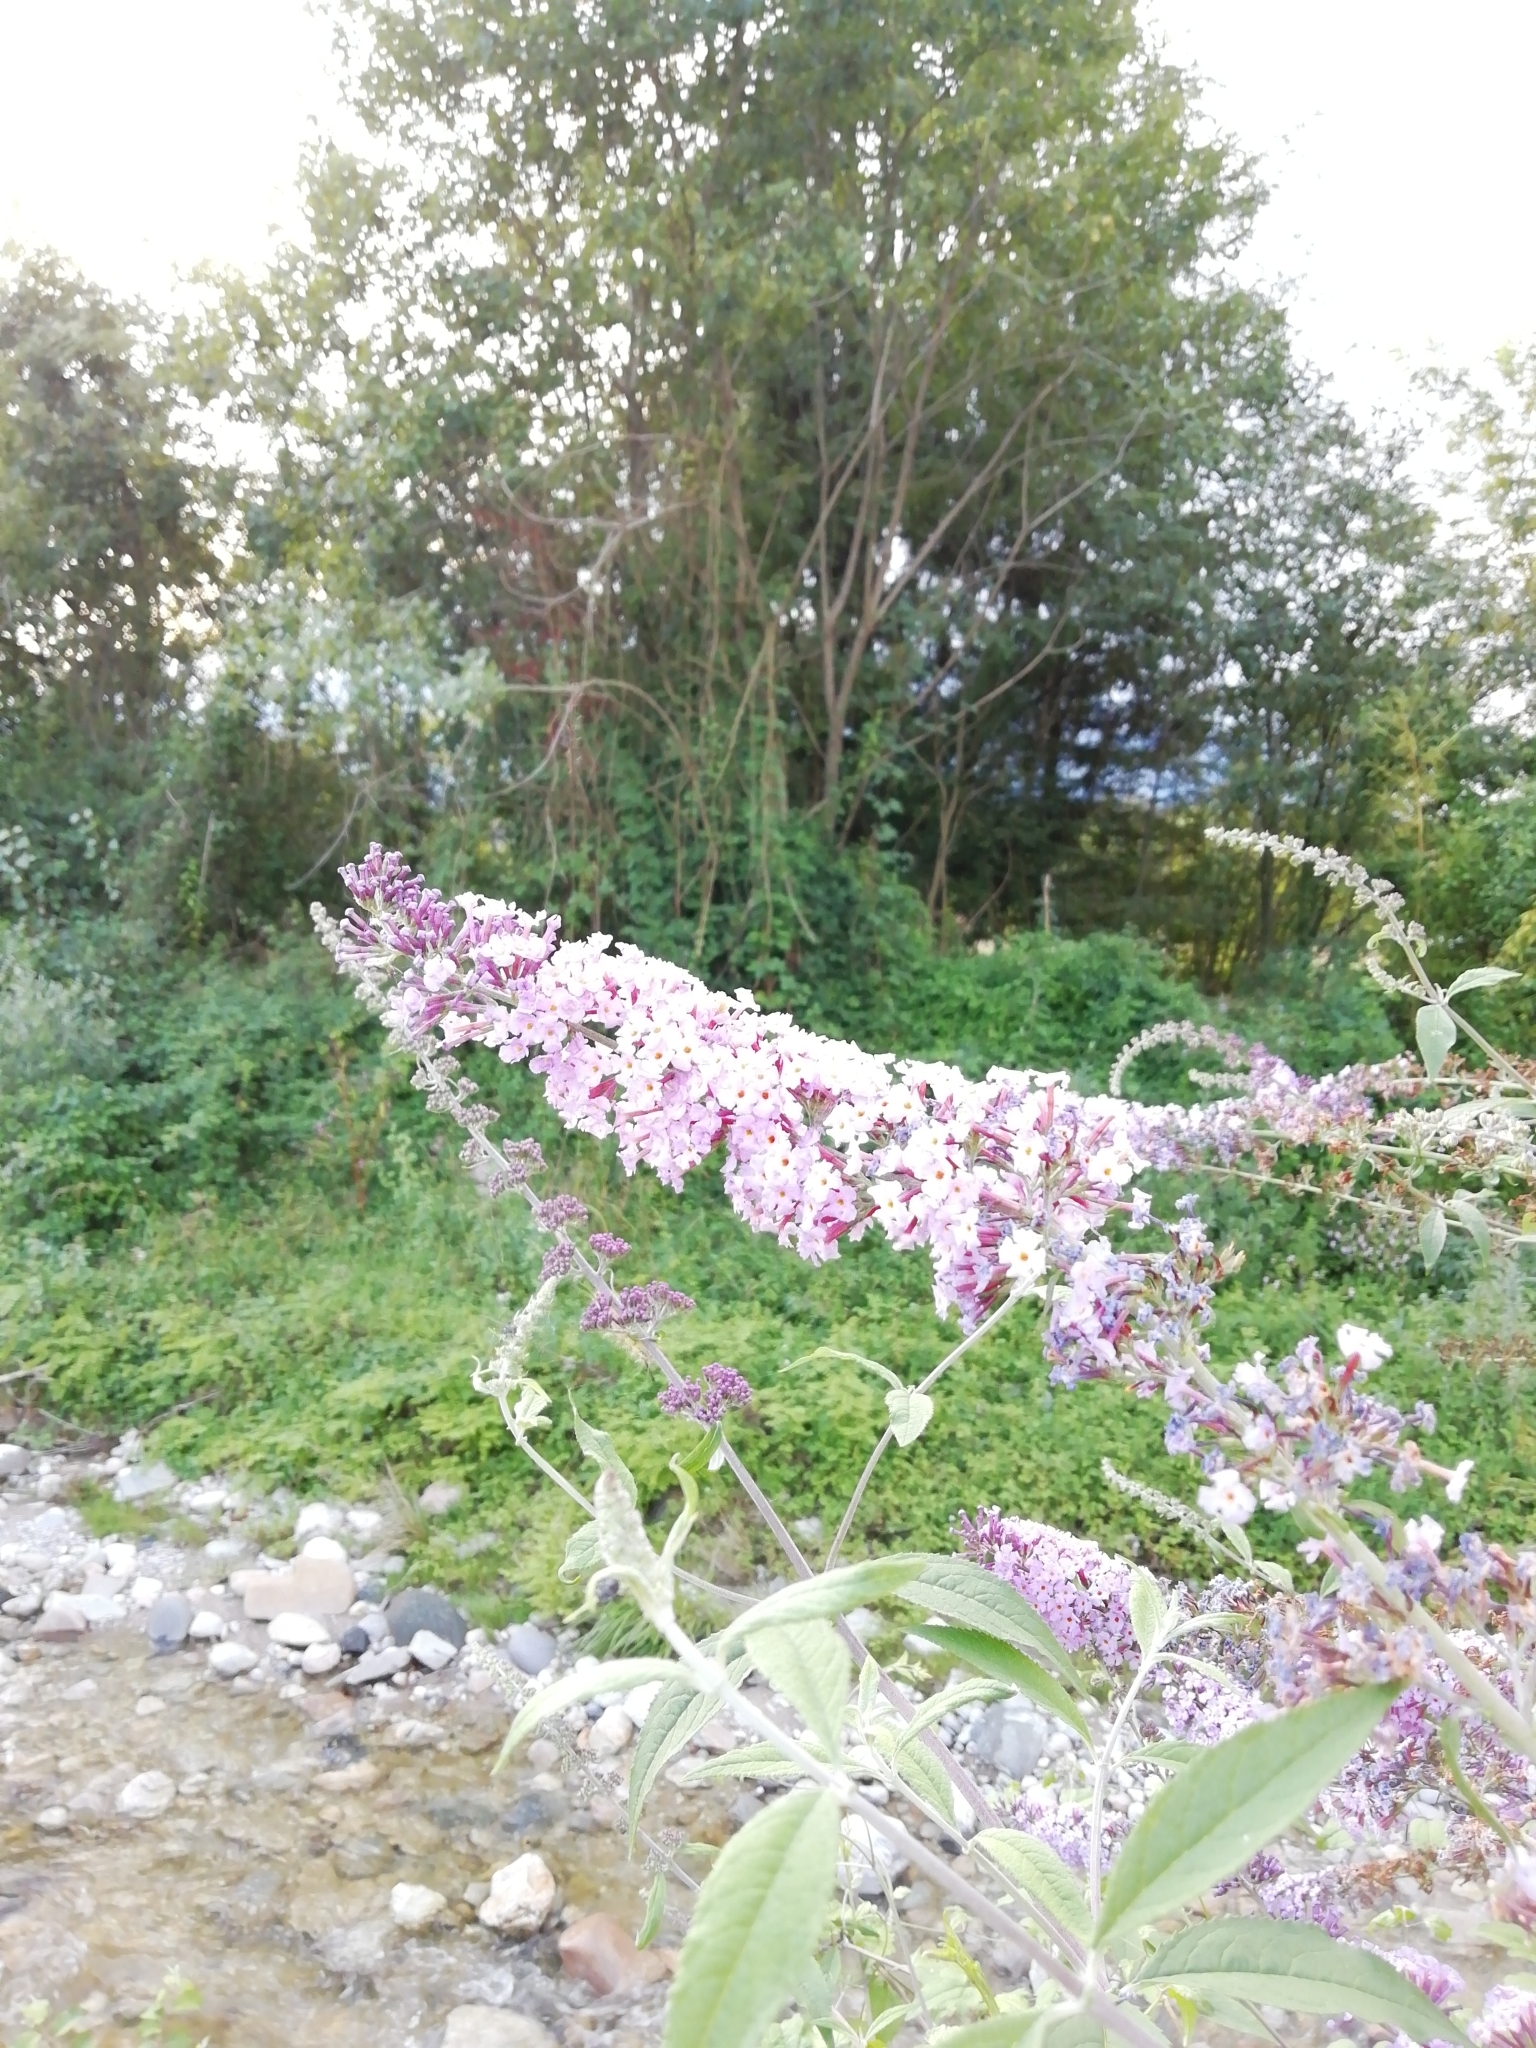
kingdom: Plantae
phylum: Tracheophyta
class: Magnoliopsida
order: Lamiales
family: Scrophulariaceae
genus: Buddleja
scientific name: Buddleja davidii
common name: Butterfly-bush
